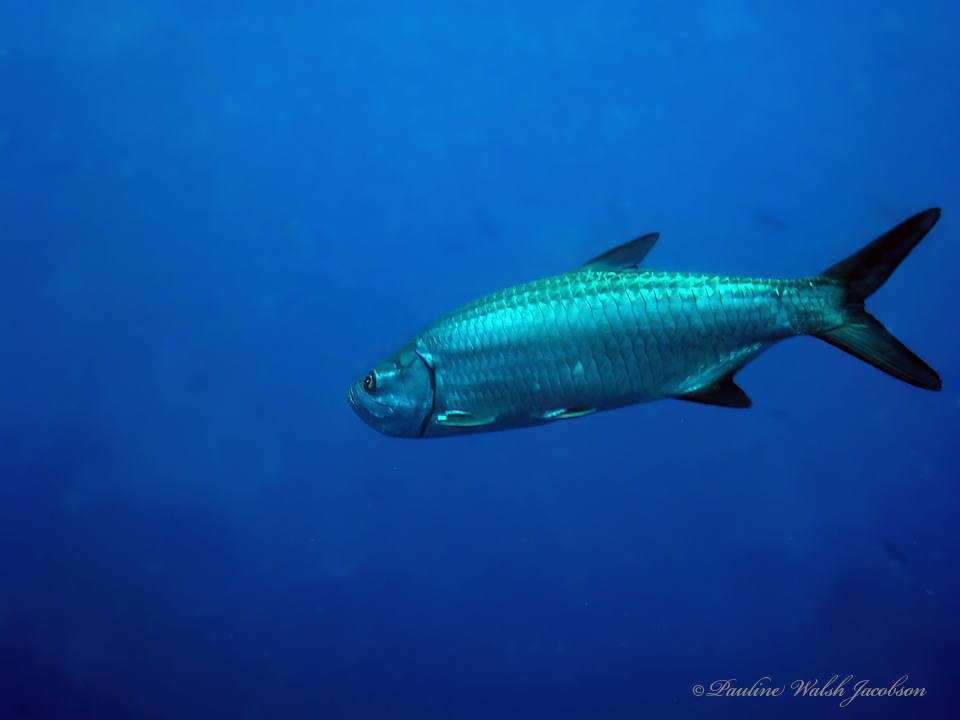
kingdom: Animalia
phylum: Chordata
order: Elopiformes
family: Megalopidae
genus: Megalops
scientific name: Megalops atlanticus
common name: Tarpon
